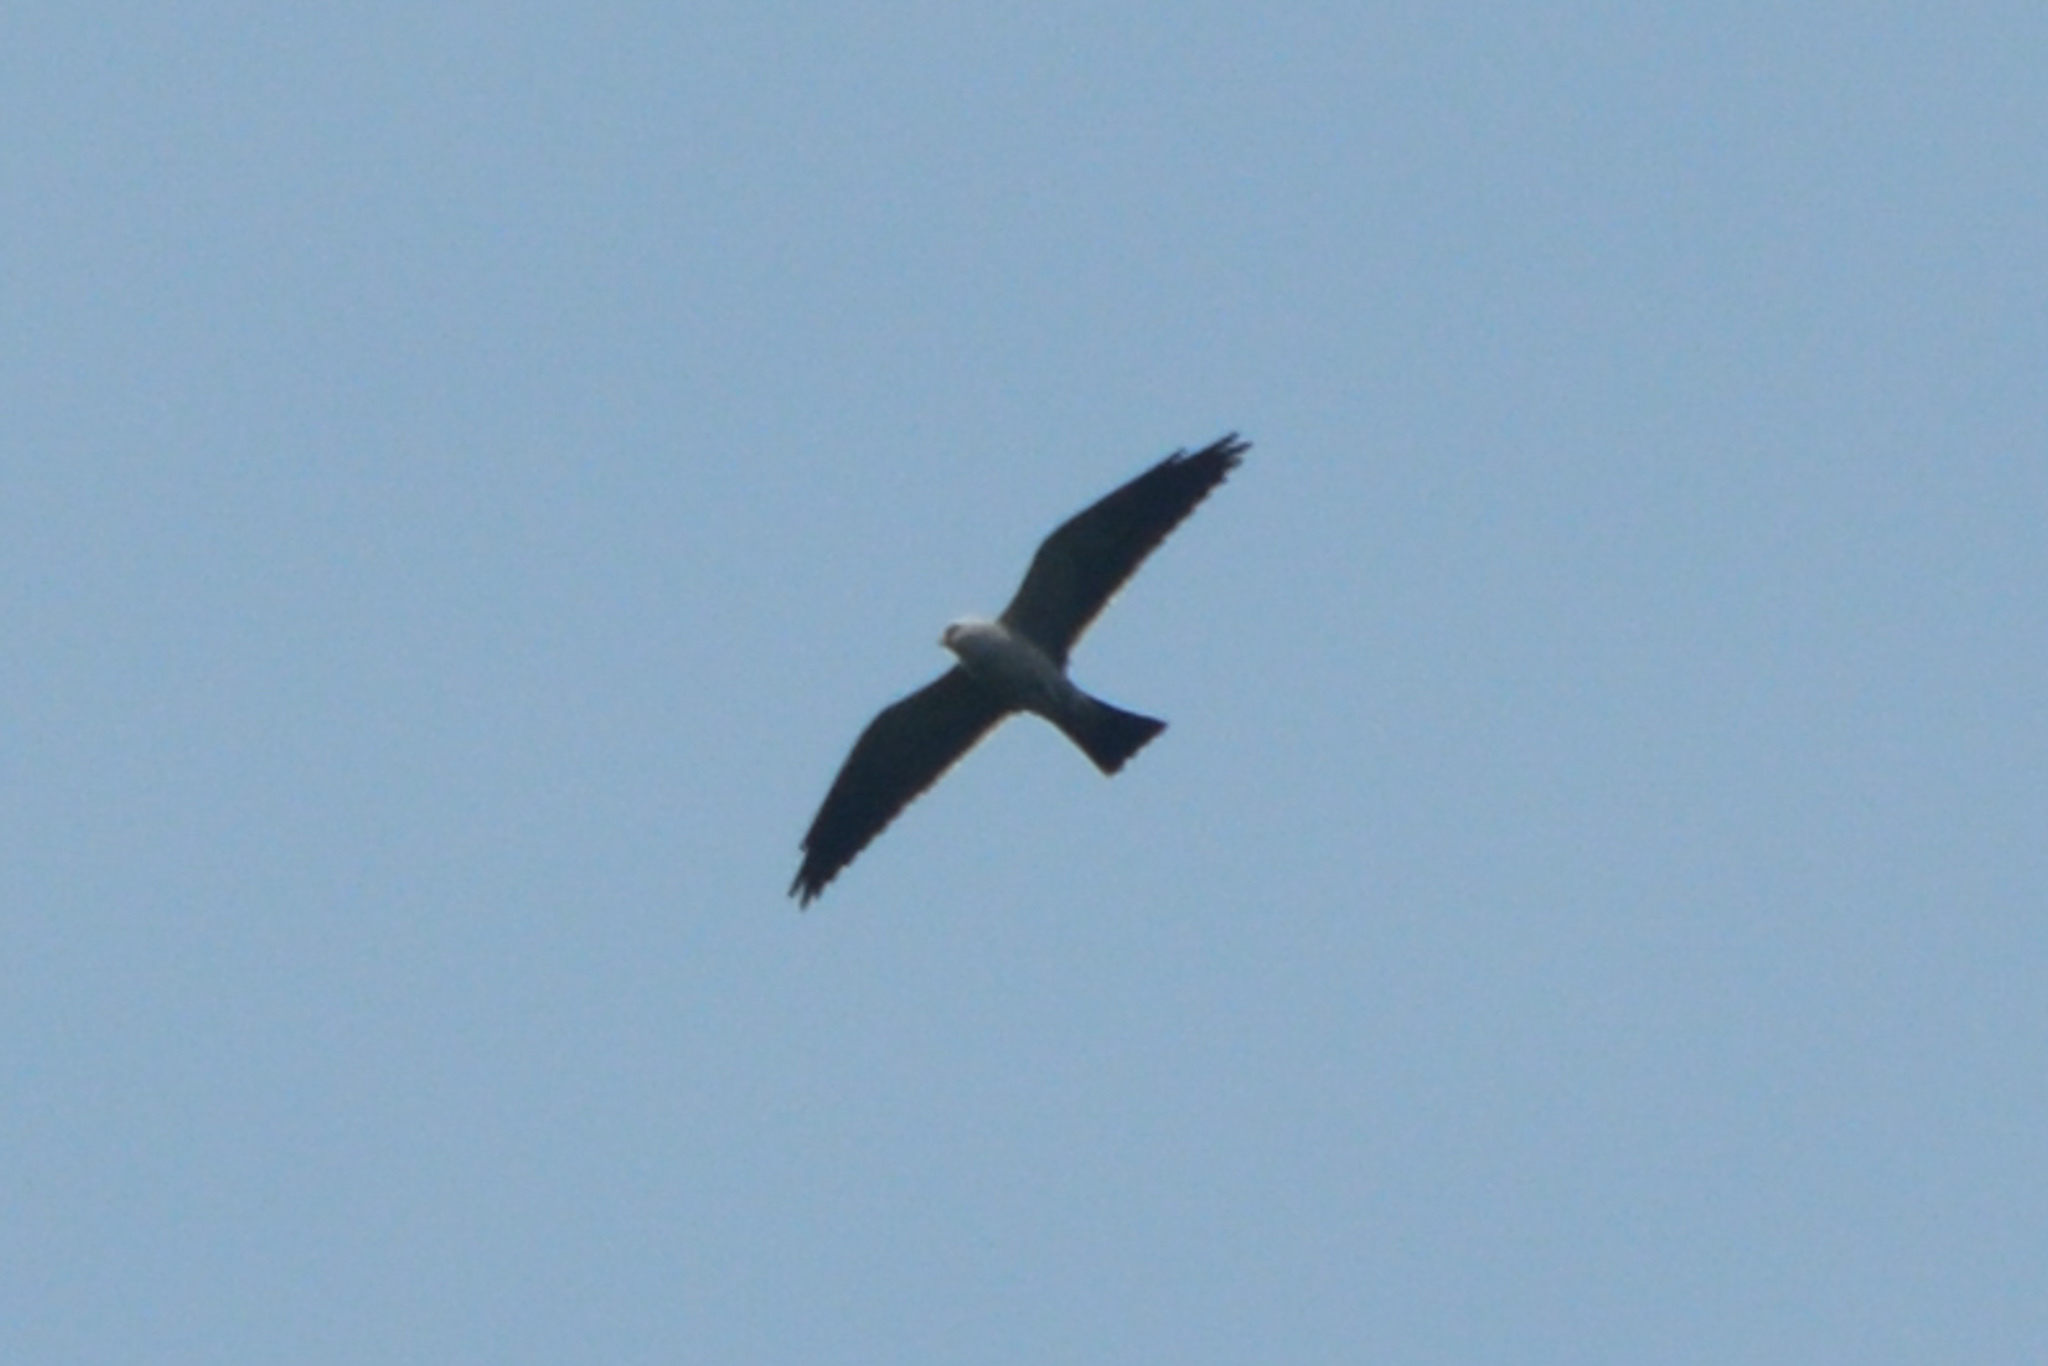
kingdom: Animalia
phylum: Chordata
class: Aves
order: Accipitriformes
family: Accipitridae
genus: Ictinia
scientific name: Ictinia mississippiensis
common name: Mississippi kite
